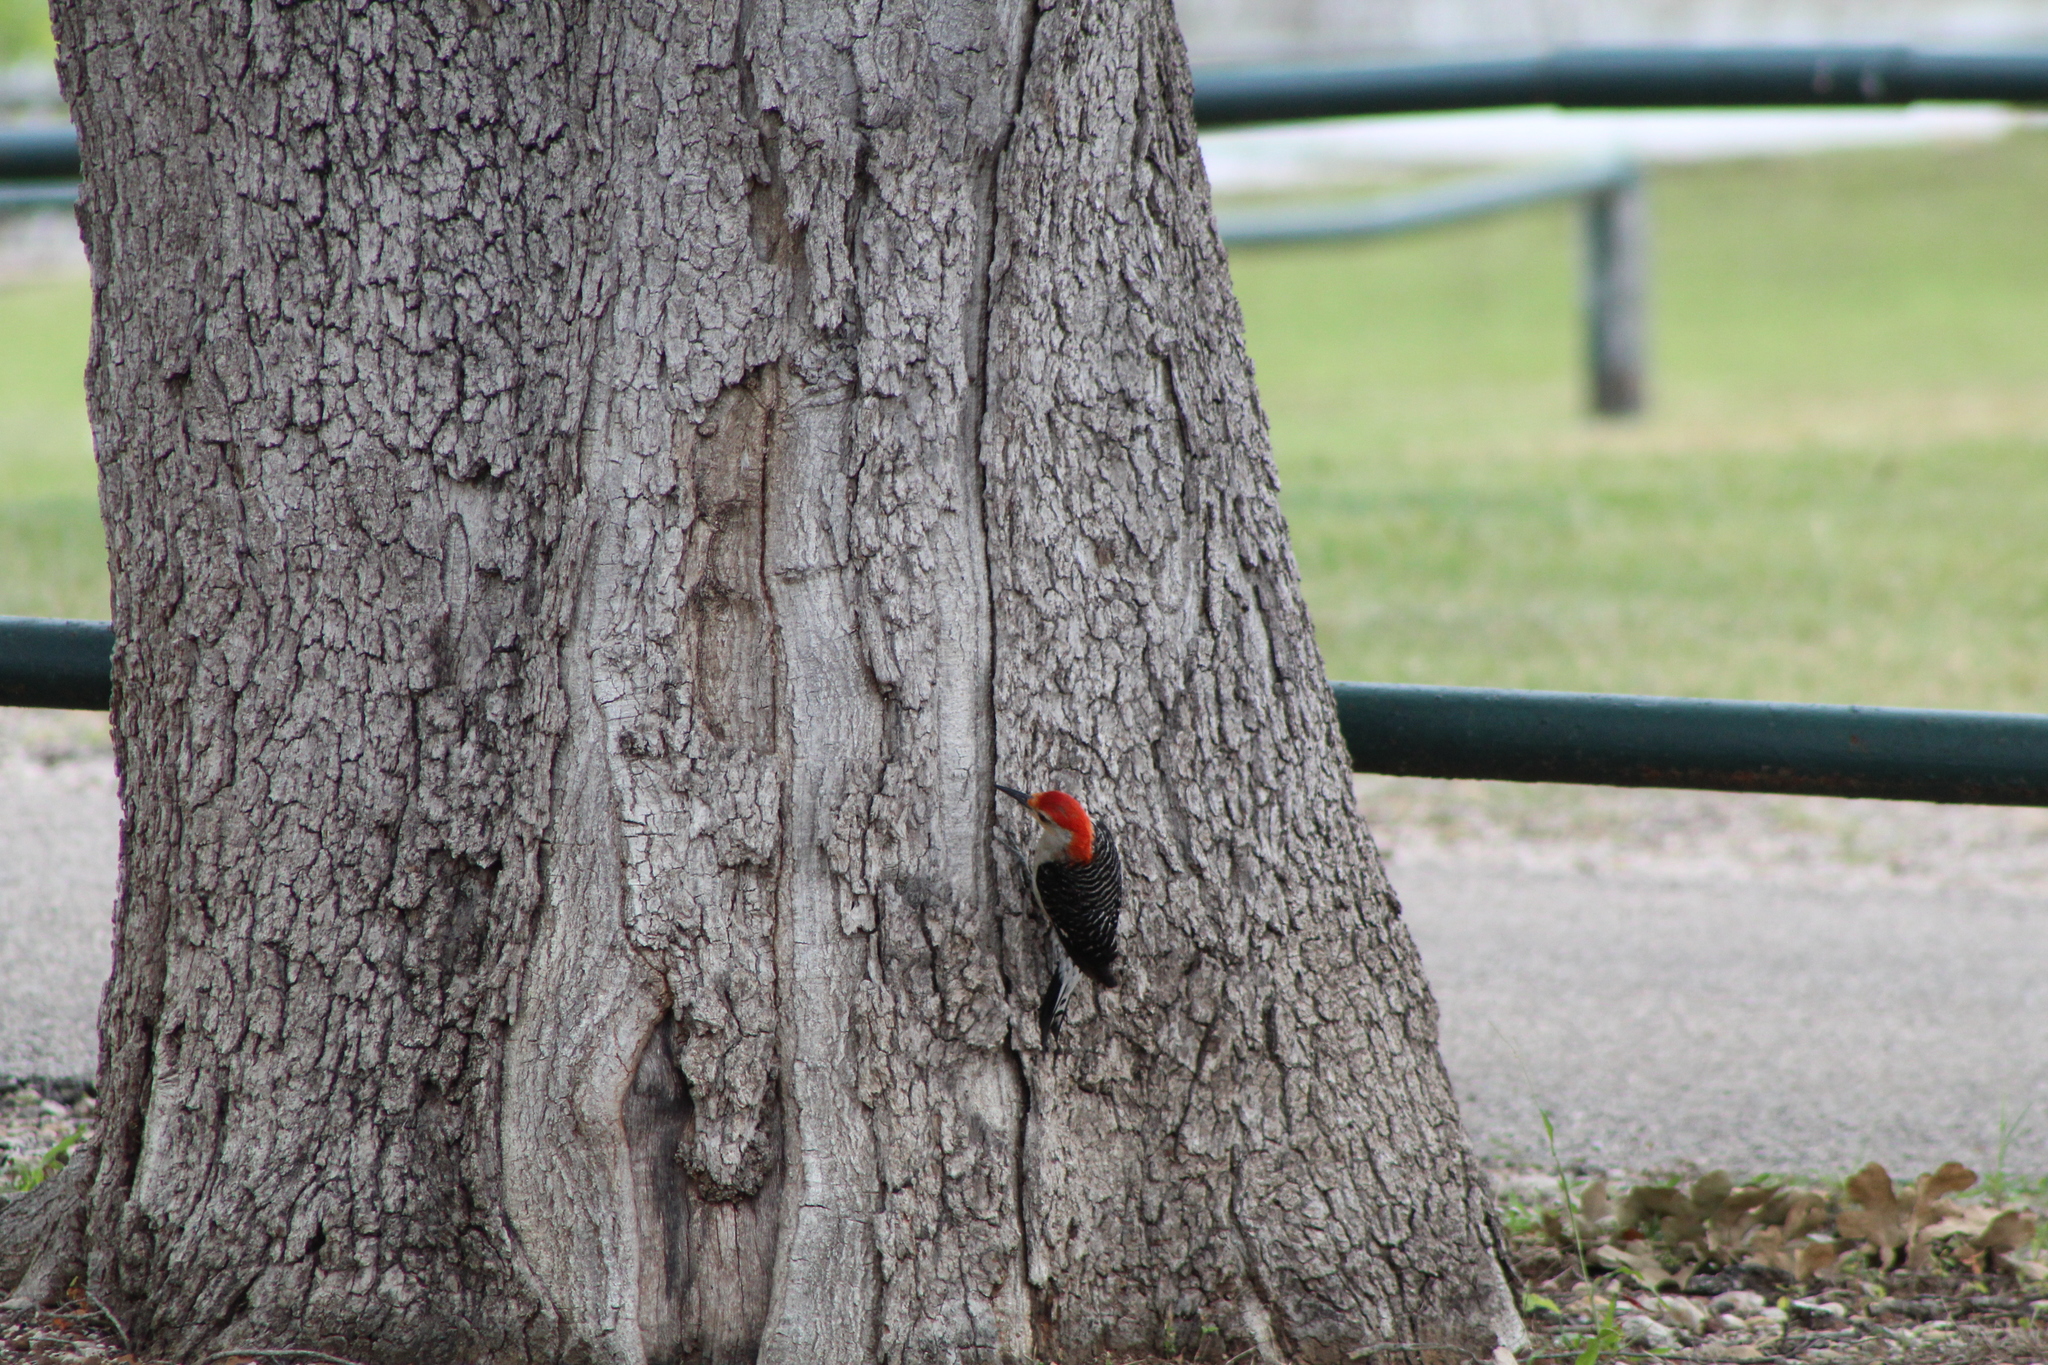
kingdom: Animalia
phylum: Chordata
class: Aves
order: Piciformes
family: Picidae
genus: Melanerpes
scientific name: Melanerpes carolinus
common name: Red-bellied woodpecker
